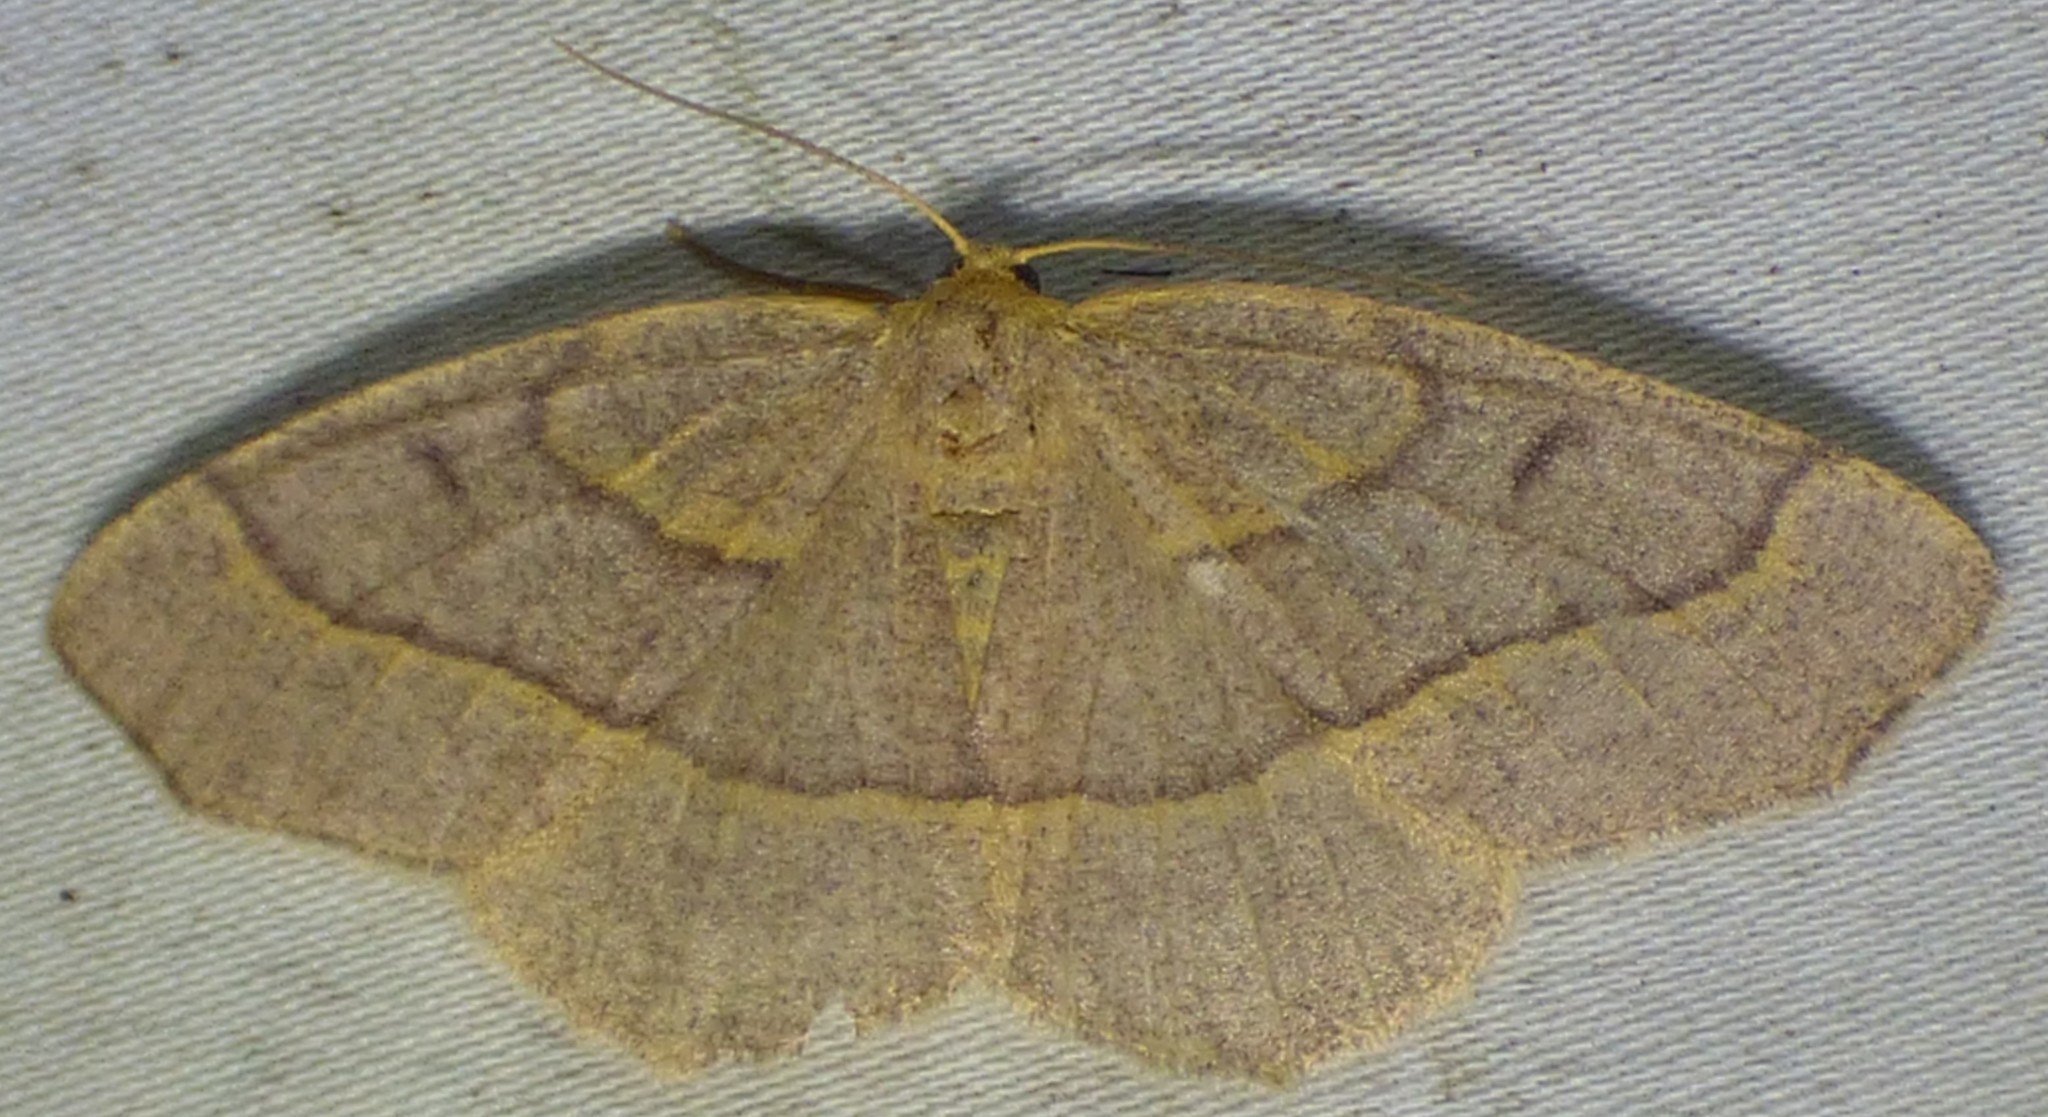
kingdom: Animalia
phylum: Arthropoda
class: Insecta
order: Lepidoptera
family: Geometridae
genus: Lambdina
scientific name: Lambdina fervidaria
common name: Curve-lined looper moth
